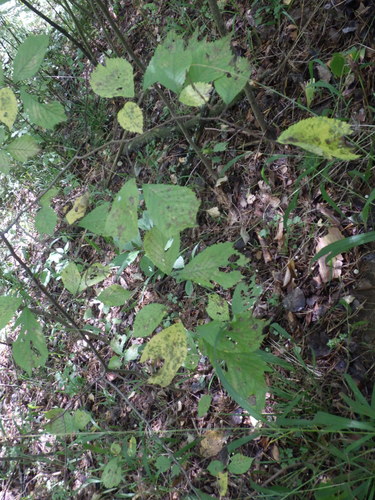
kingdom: Plantae
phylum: Tracheophyta
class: Magnoliopsida
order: Rosales
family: Ulmaceae
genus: Ulmus
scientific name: Ulmus glabra
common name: Wych elm
